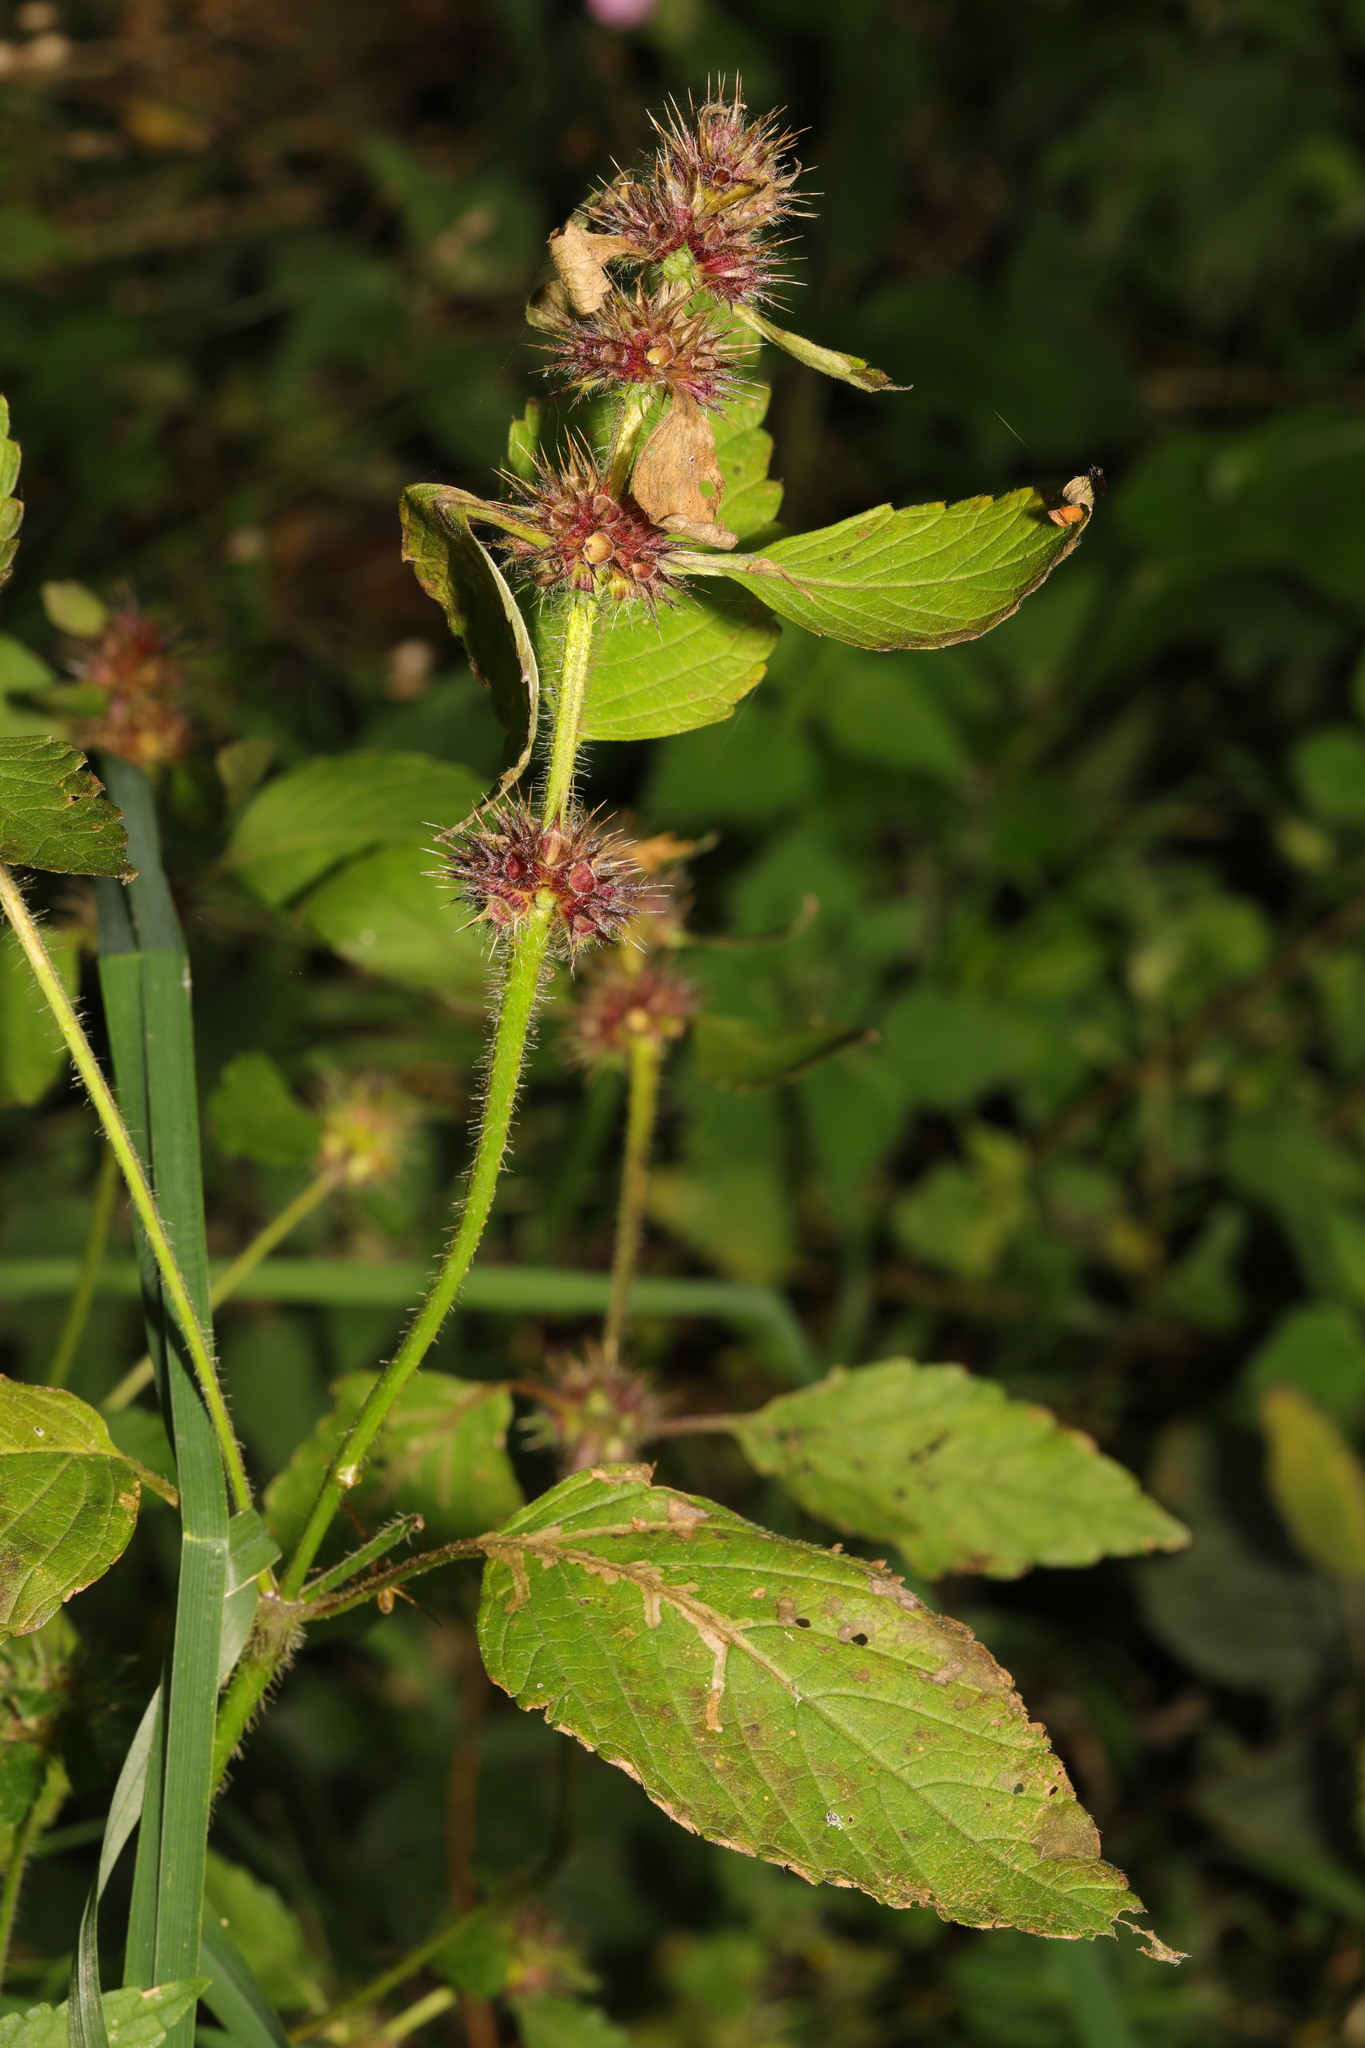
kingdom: Plantae
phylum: Tracheophyta
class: Magnoliopsida
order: Lamiales
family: Lamiaceae
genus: Galeopsis
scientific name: Galeopsis tetrahit
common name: Common hemp-nettle
